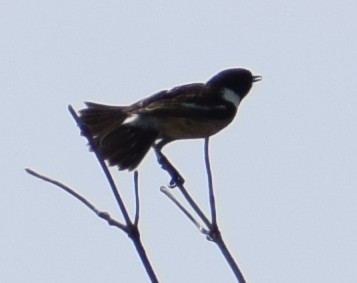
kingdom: Animalia
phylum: Chordata
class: Aves
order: Passeriformes
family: Muscicapidae
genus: Saxicola
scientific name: Saxicola rubicola
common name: European stonechat
